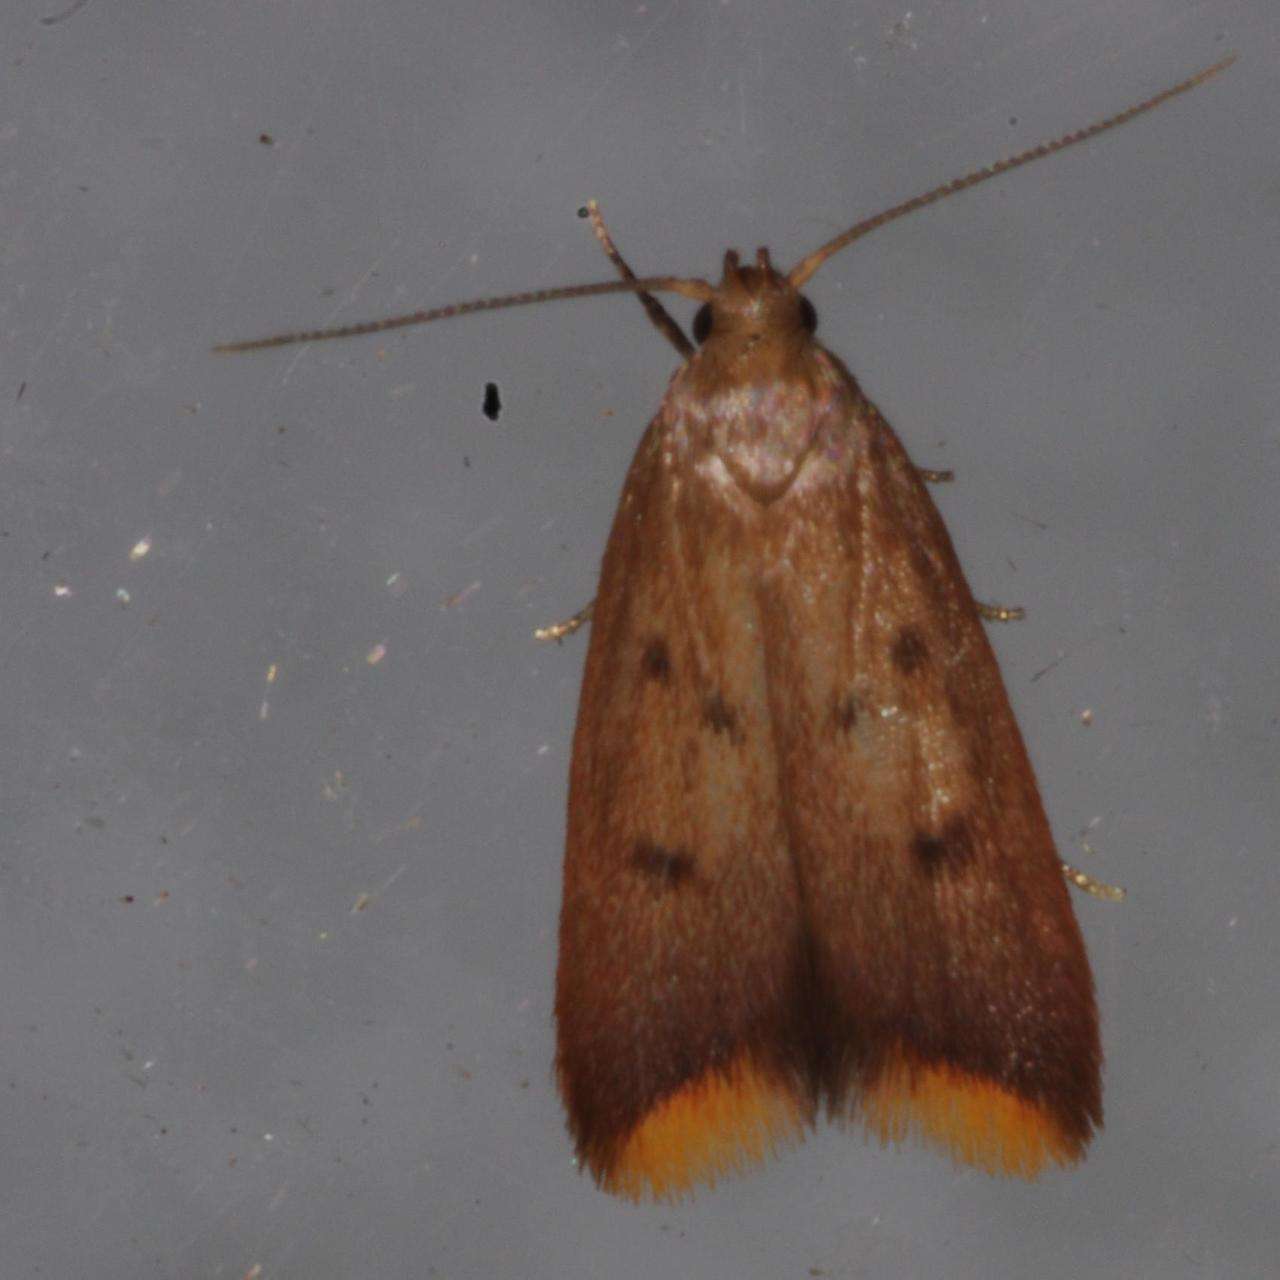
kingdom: Animalia
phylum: Arthropoda
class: Insecta
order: Lepidoptera
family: Oecophoridae
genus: Tachystola
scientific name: Tachystola acroxantha
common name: Ruddy streak
